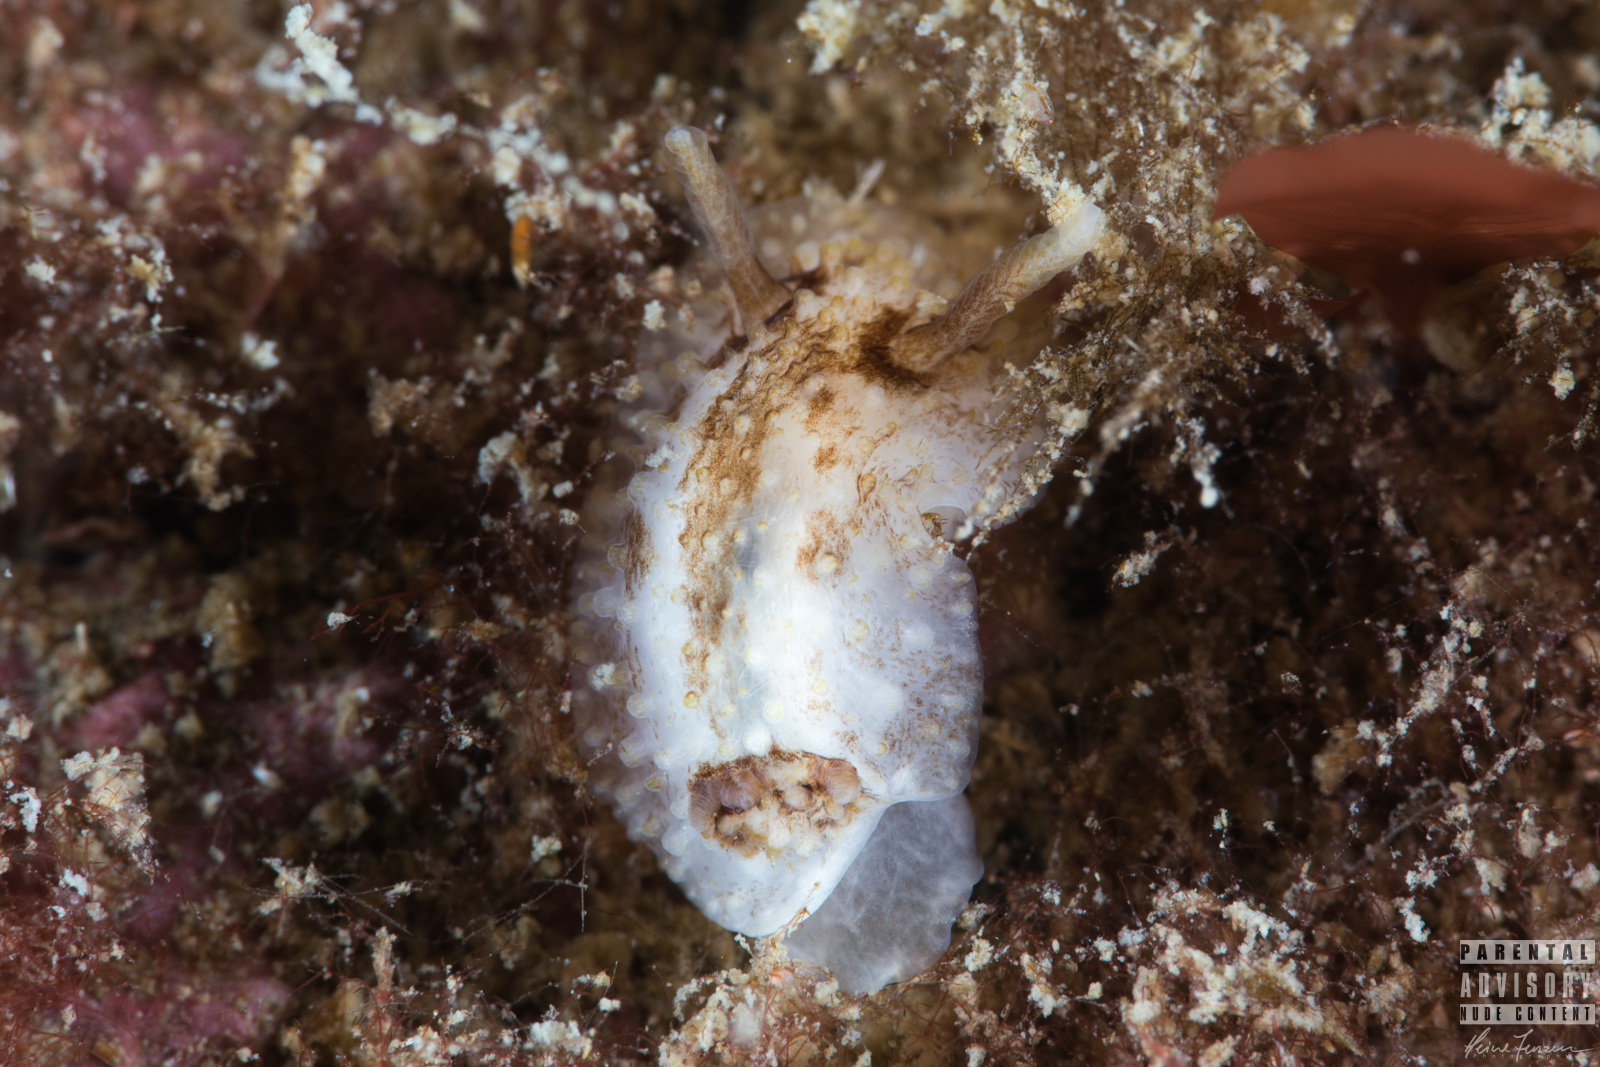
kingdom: Animalia
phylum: Mollusca
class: Gastropoda
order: Nudibranchia
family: Onchidorididae
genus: Onchidoris
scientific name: Onchidoris bilamellata
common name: Barnacle-eating onchidoris
